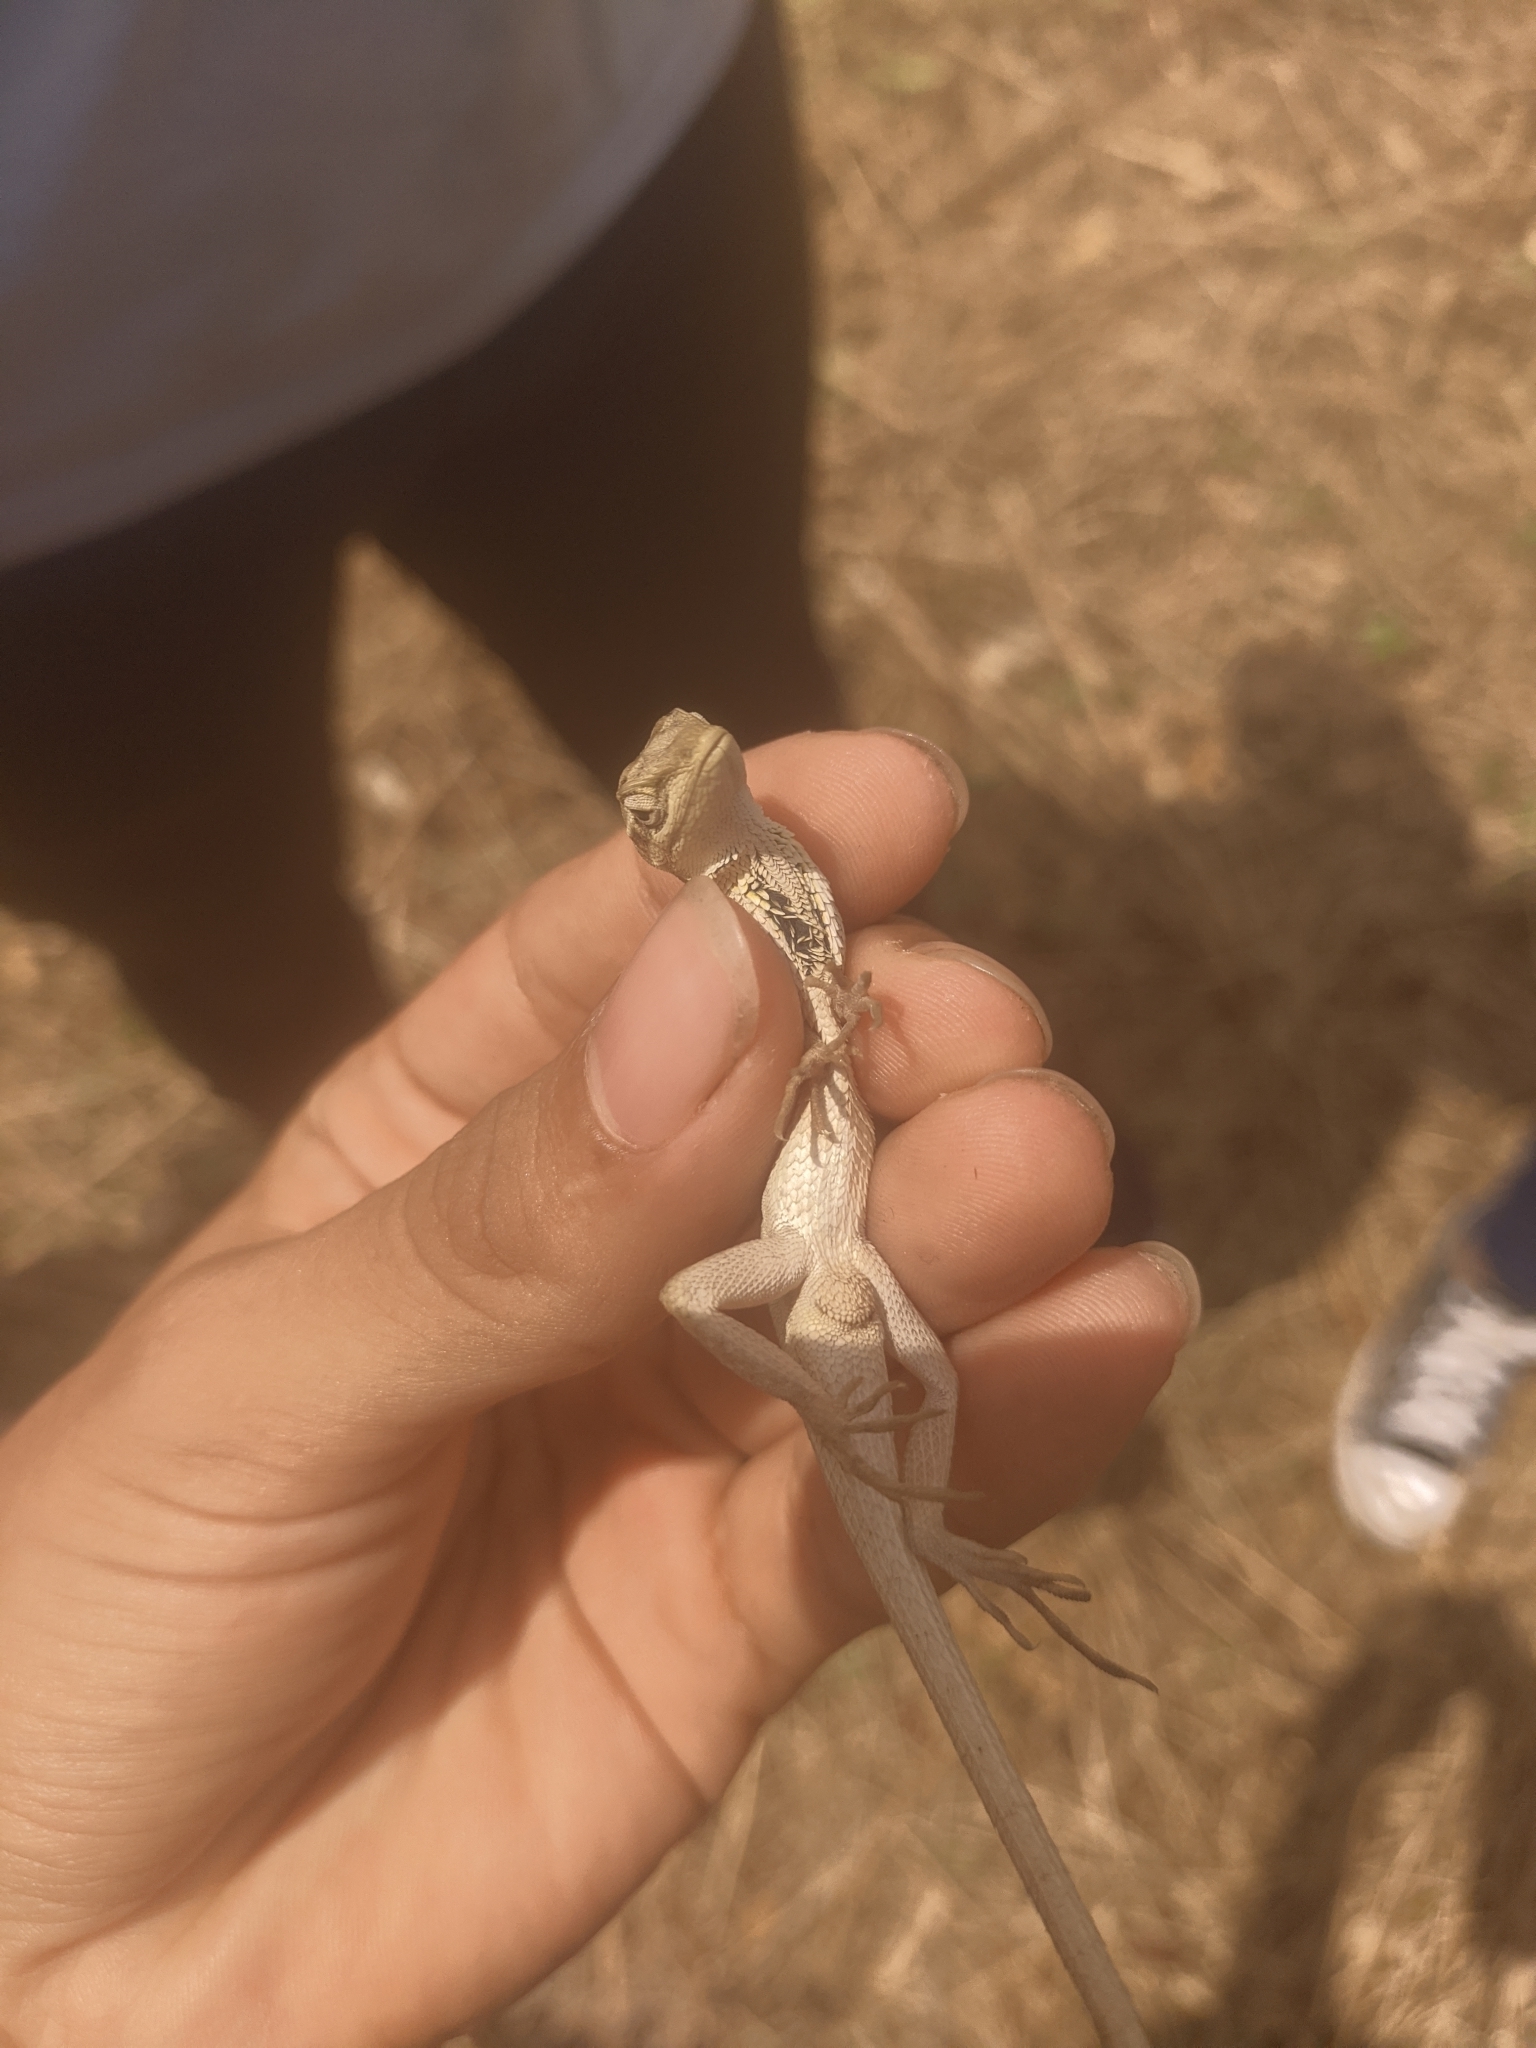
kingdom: Animalia
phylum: Chordata
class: Squamata
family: Dactyloidae
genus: Anolis
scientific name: Anolis auratus
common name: Grass anole
